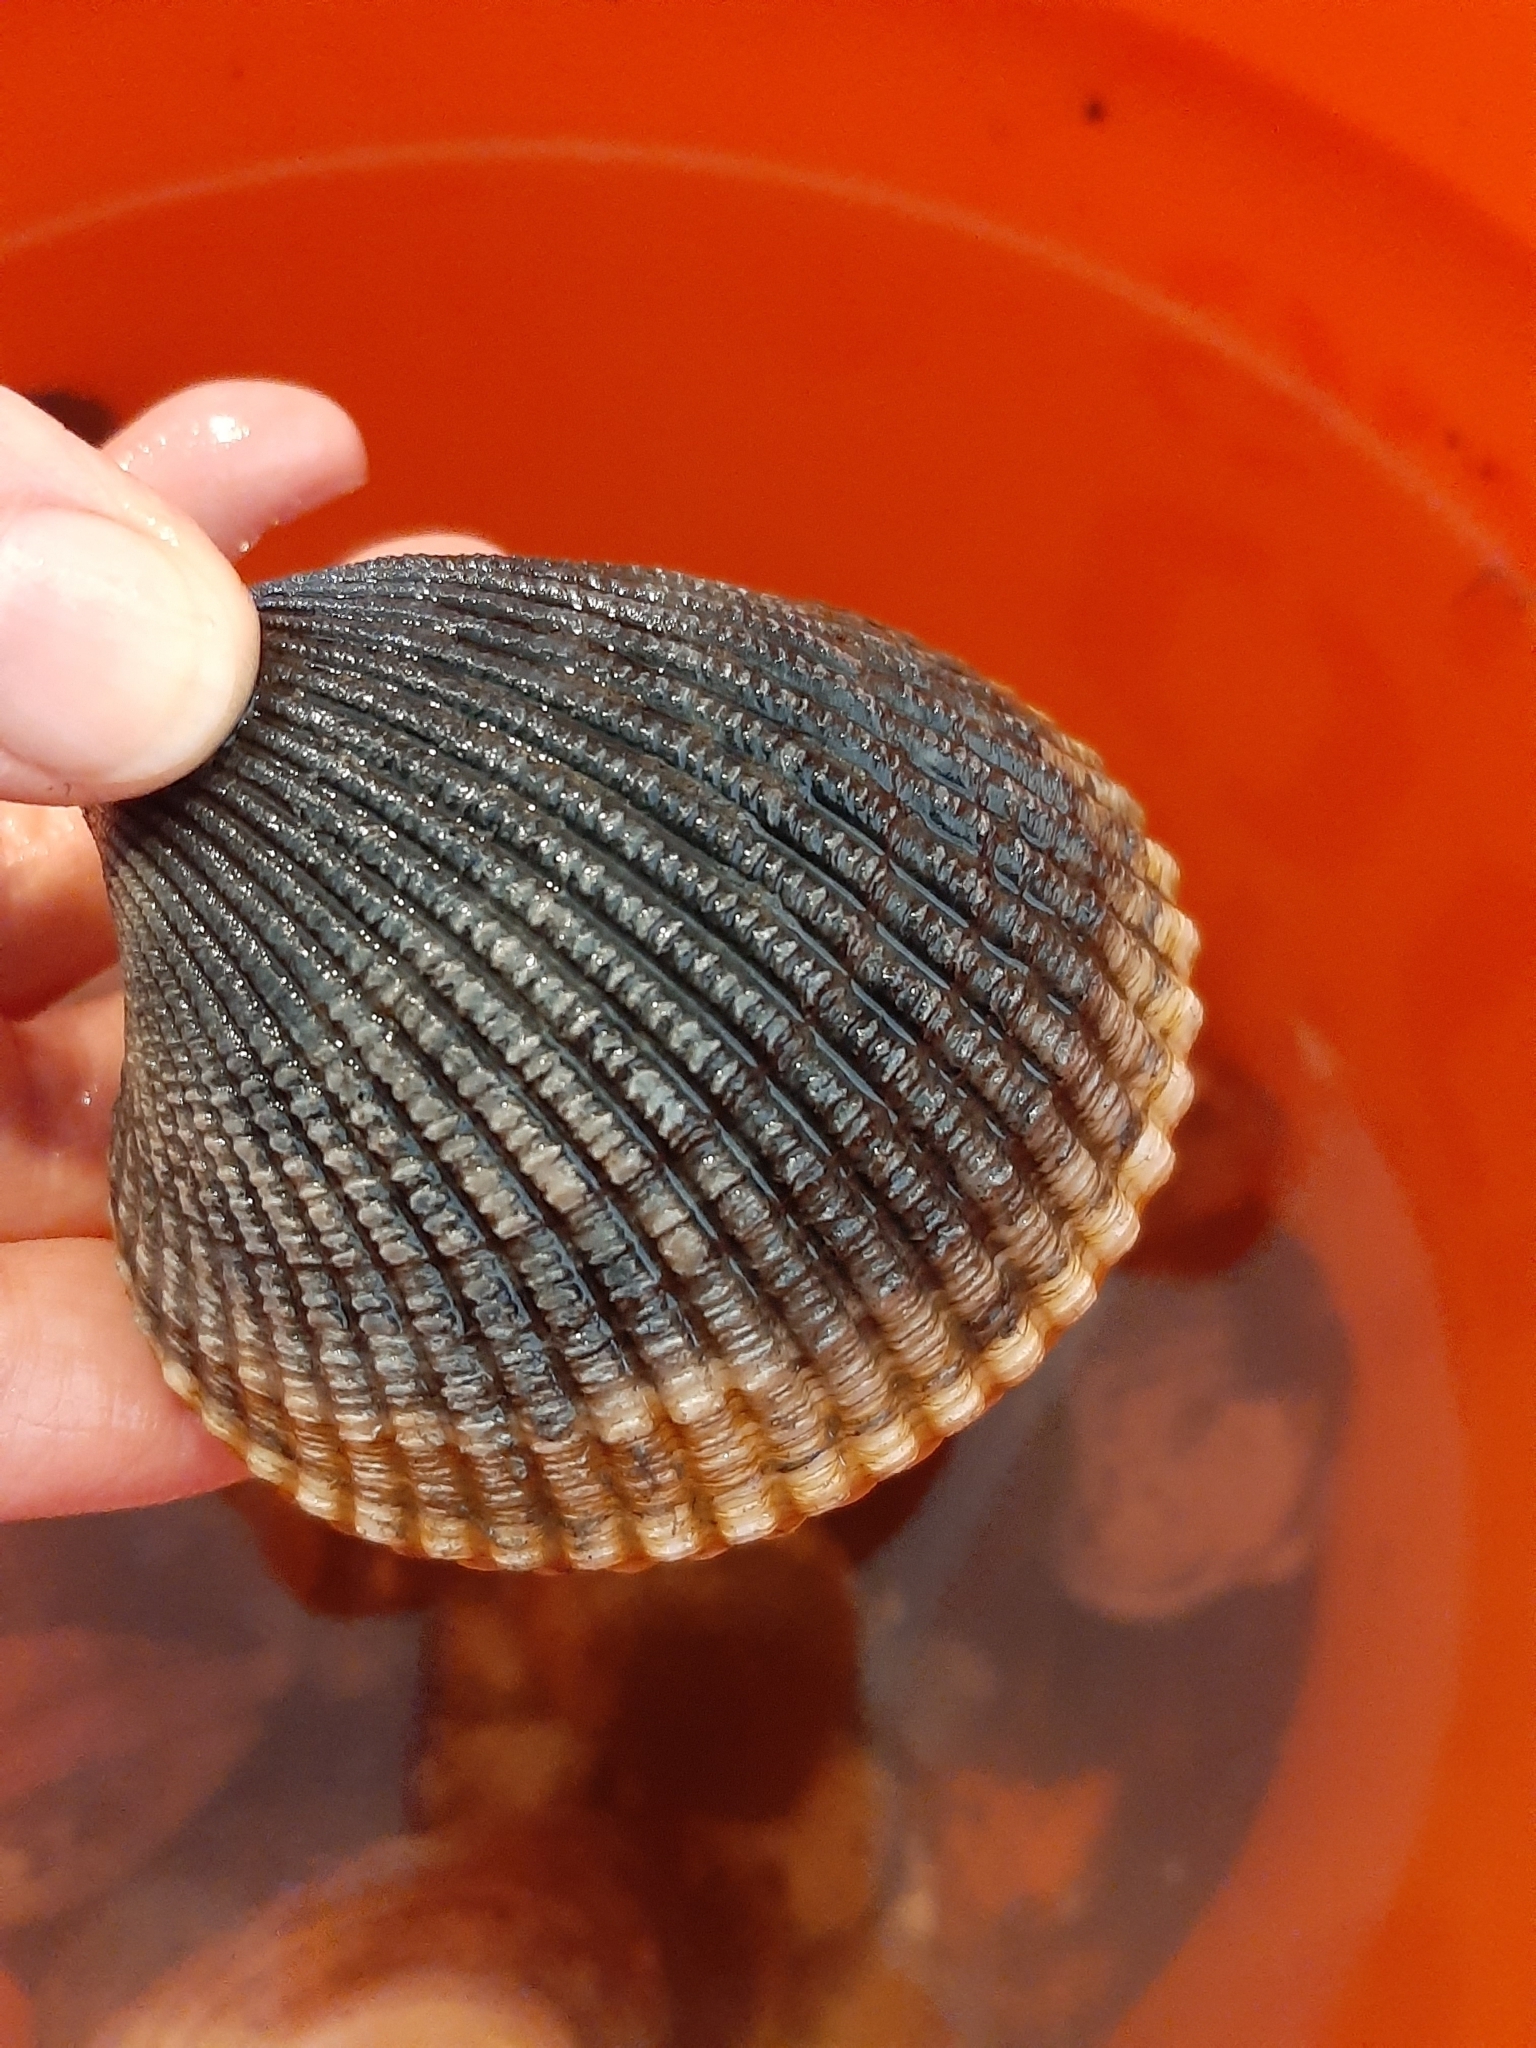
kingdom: Animalia
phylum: Mollusca
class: Bivalvia
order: Cardiida
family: Cardiidae
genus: Clinocardium
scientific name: Clinocardium nuttallii
